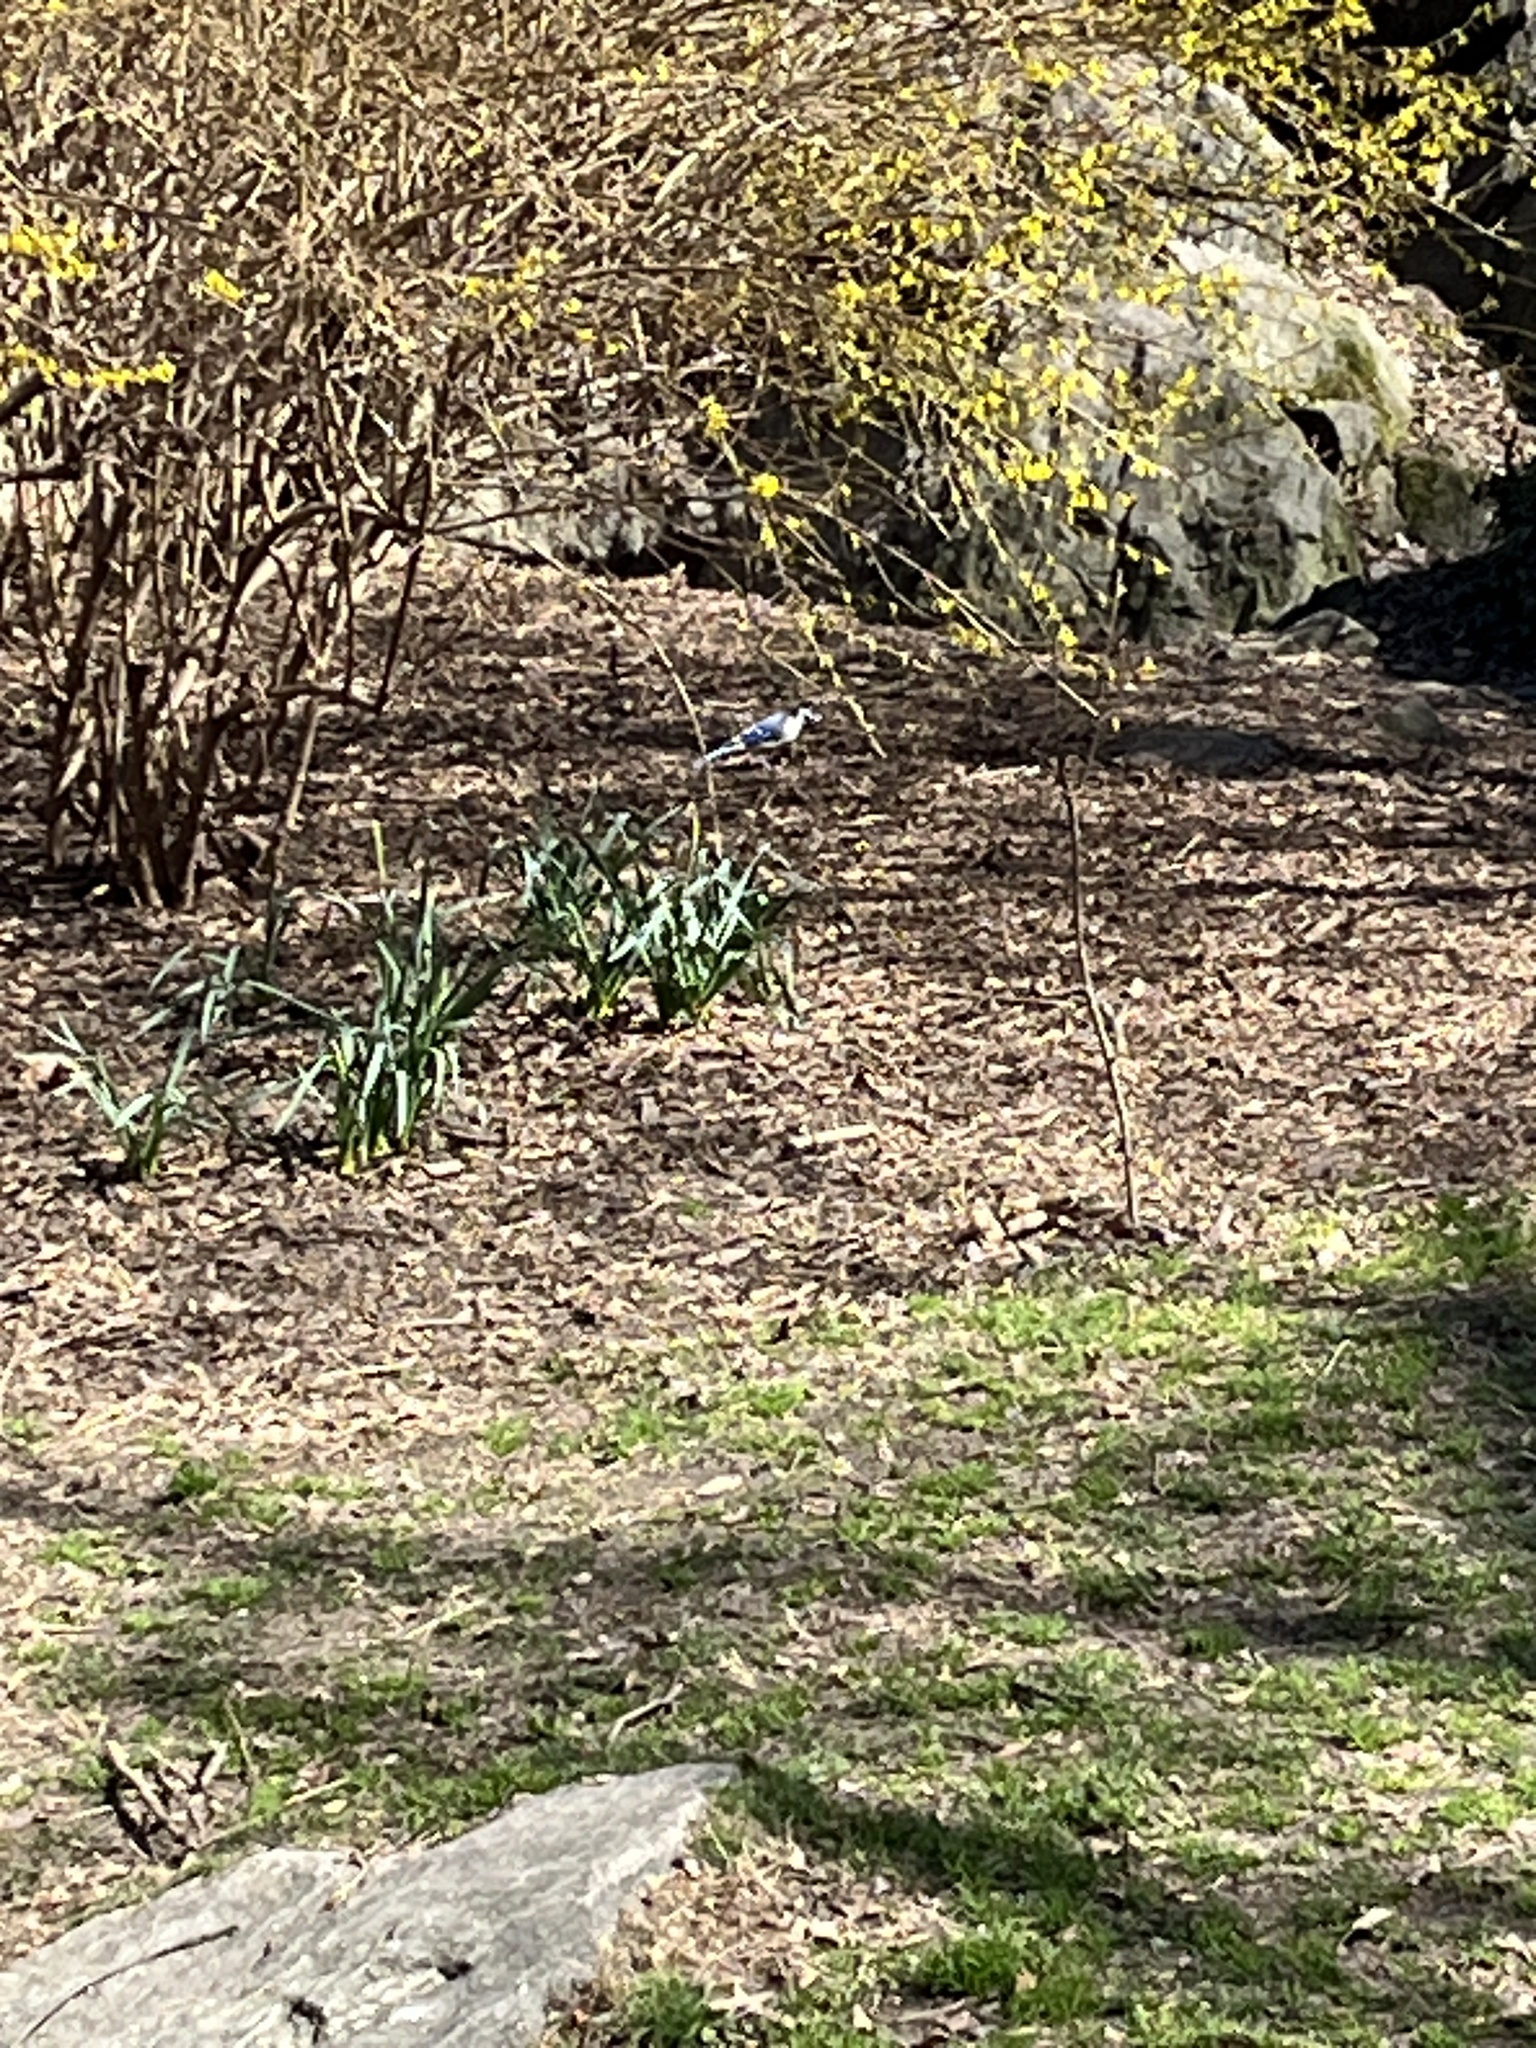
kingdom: Animalia
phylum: Chordata
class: Aves
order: Passeriformes
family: Corvidae
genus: Cyanocitta
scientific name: Cyanocitta cristata
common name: Blue jay
